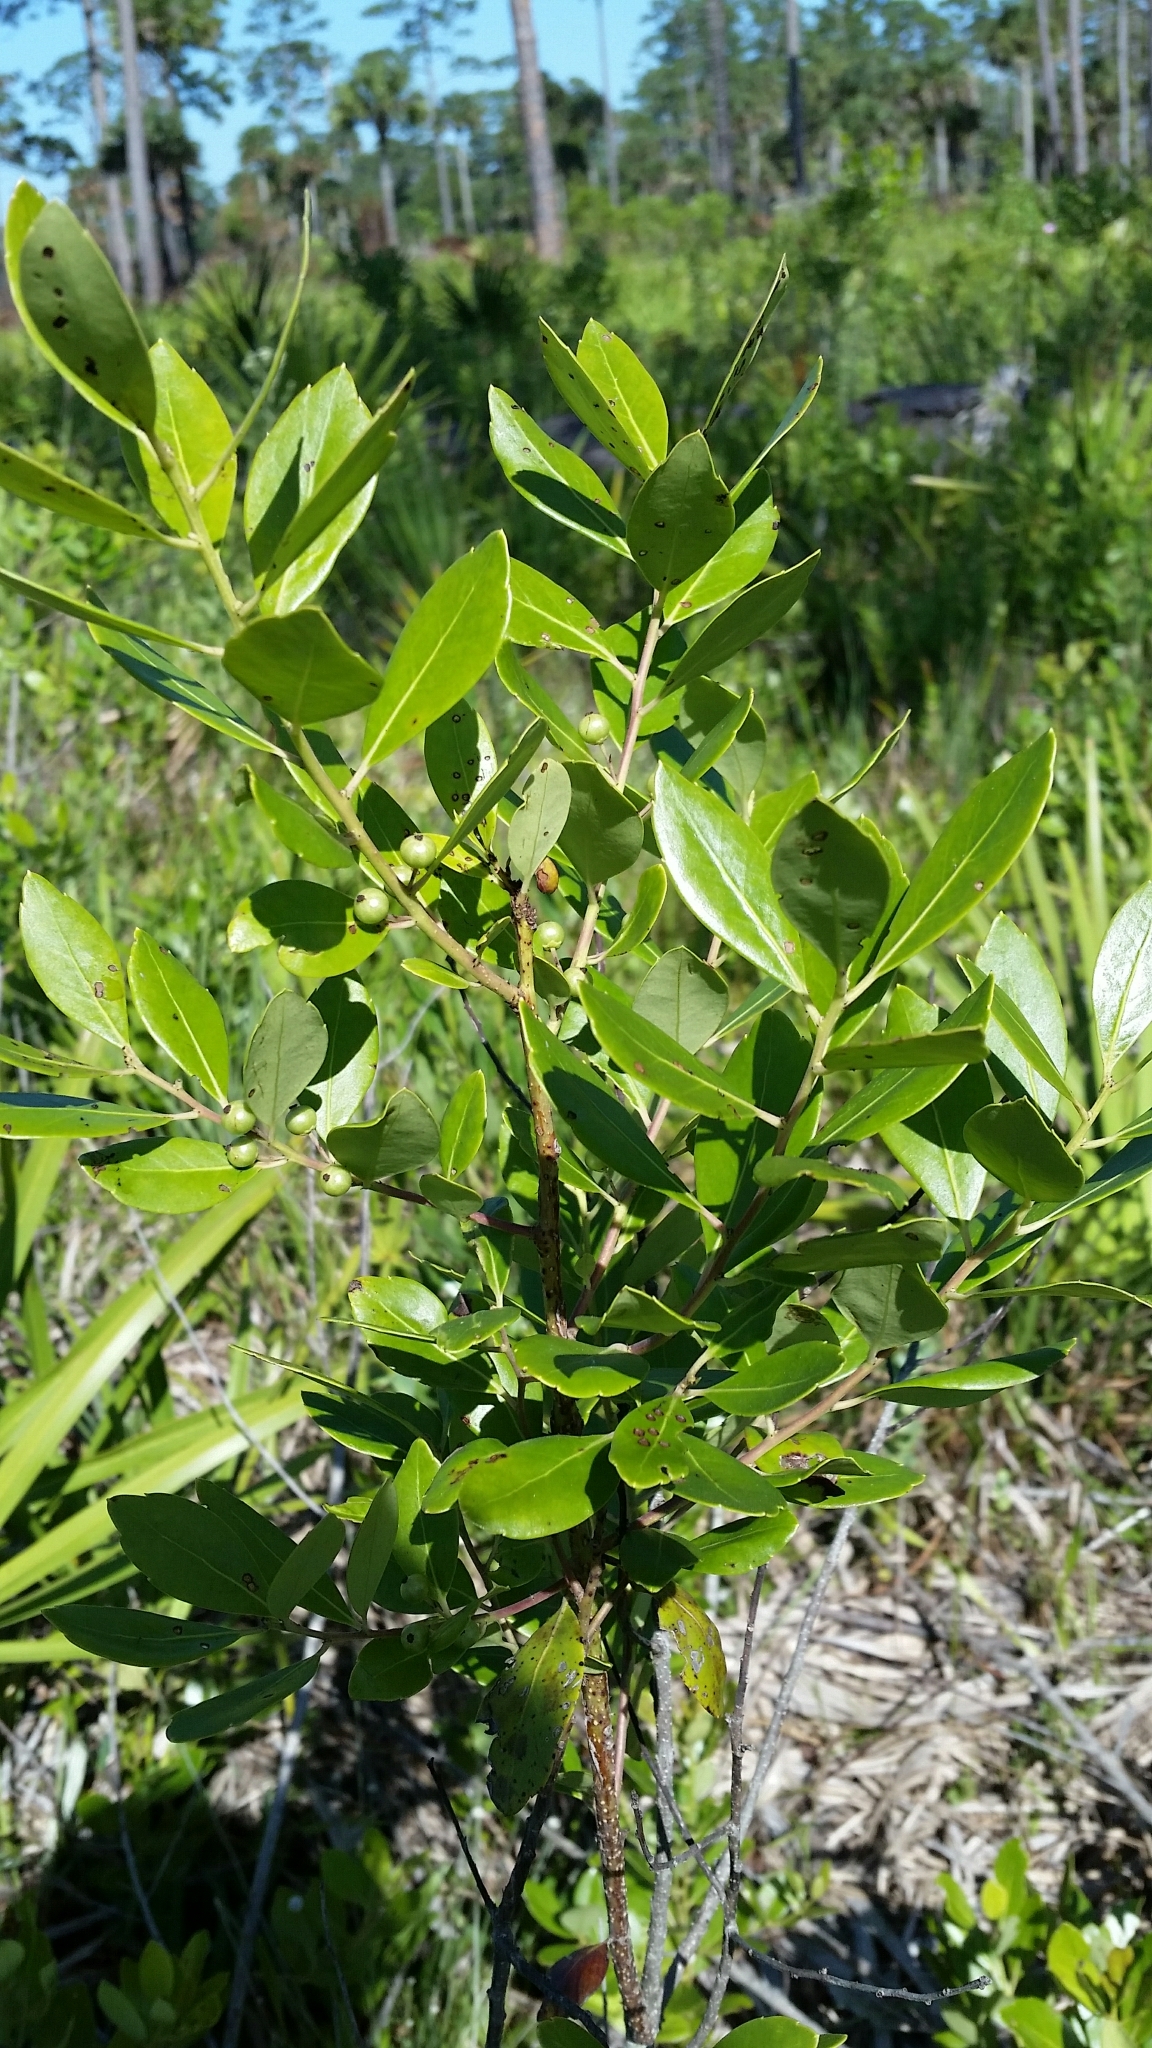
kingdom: Plantae
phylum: Tracheophyta
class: Magnoliopsida
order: Aquifoliales
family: Aquifoliaceae
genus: Ilex
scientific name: Ilex glabra
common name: Bitter gallberry
